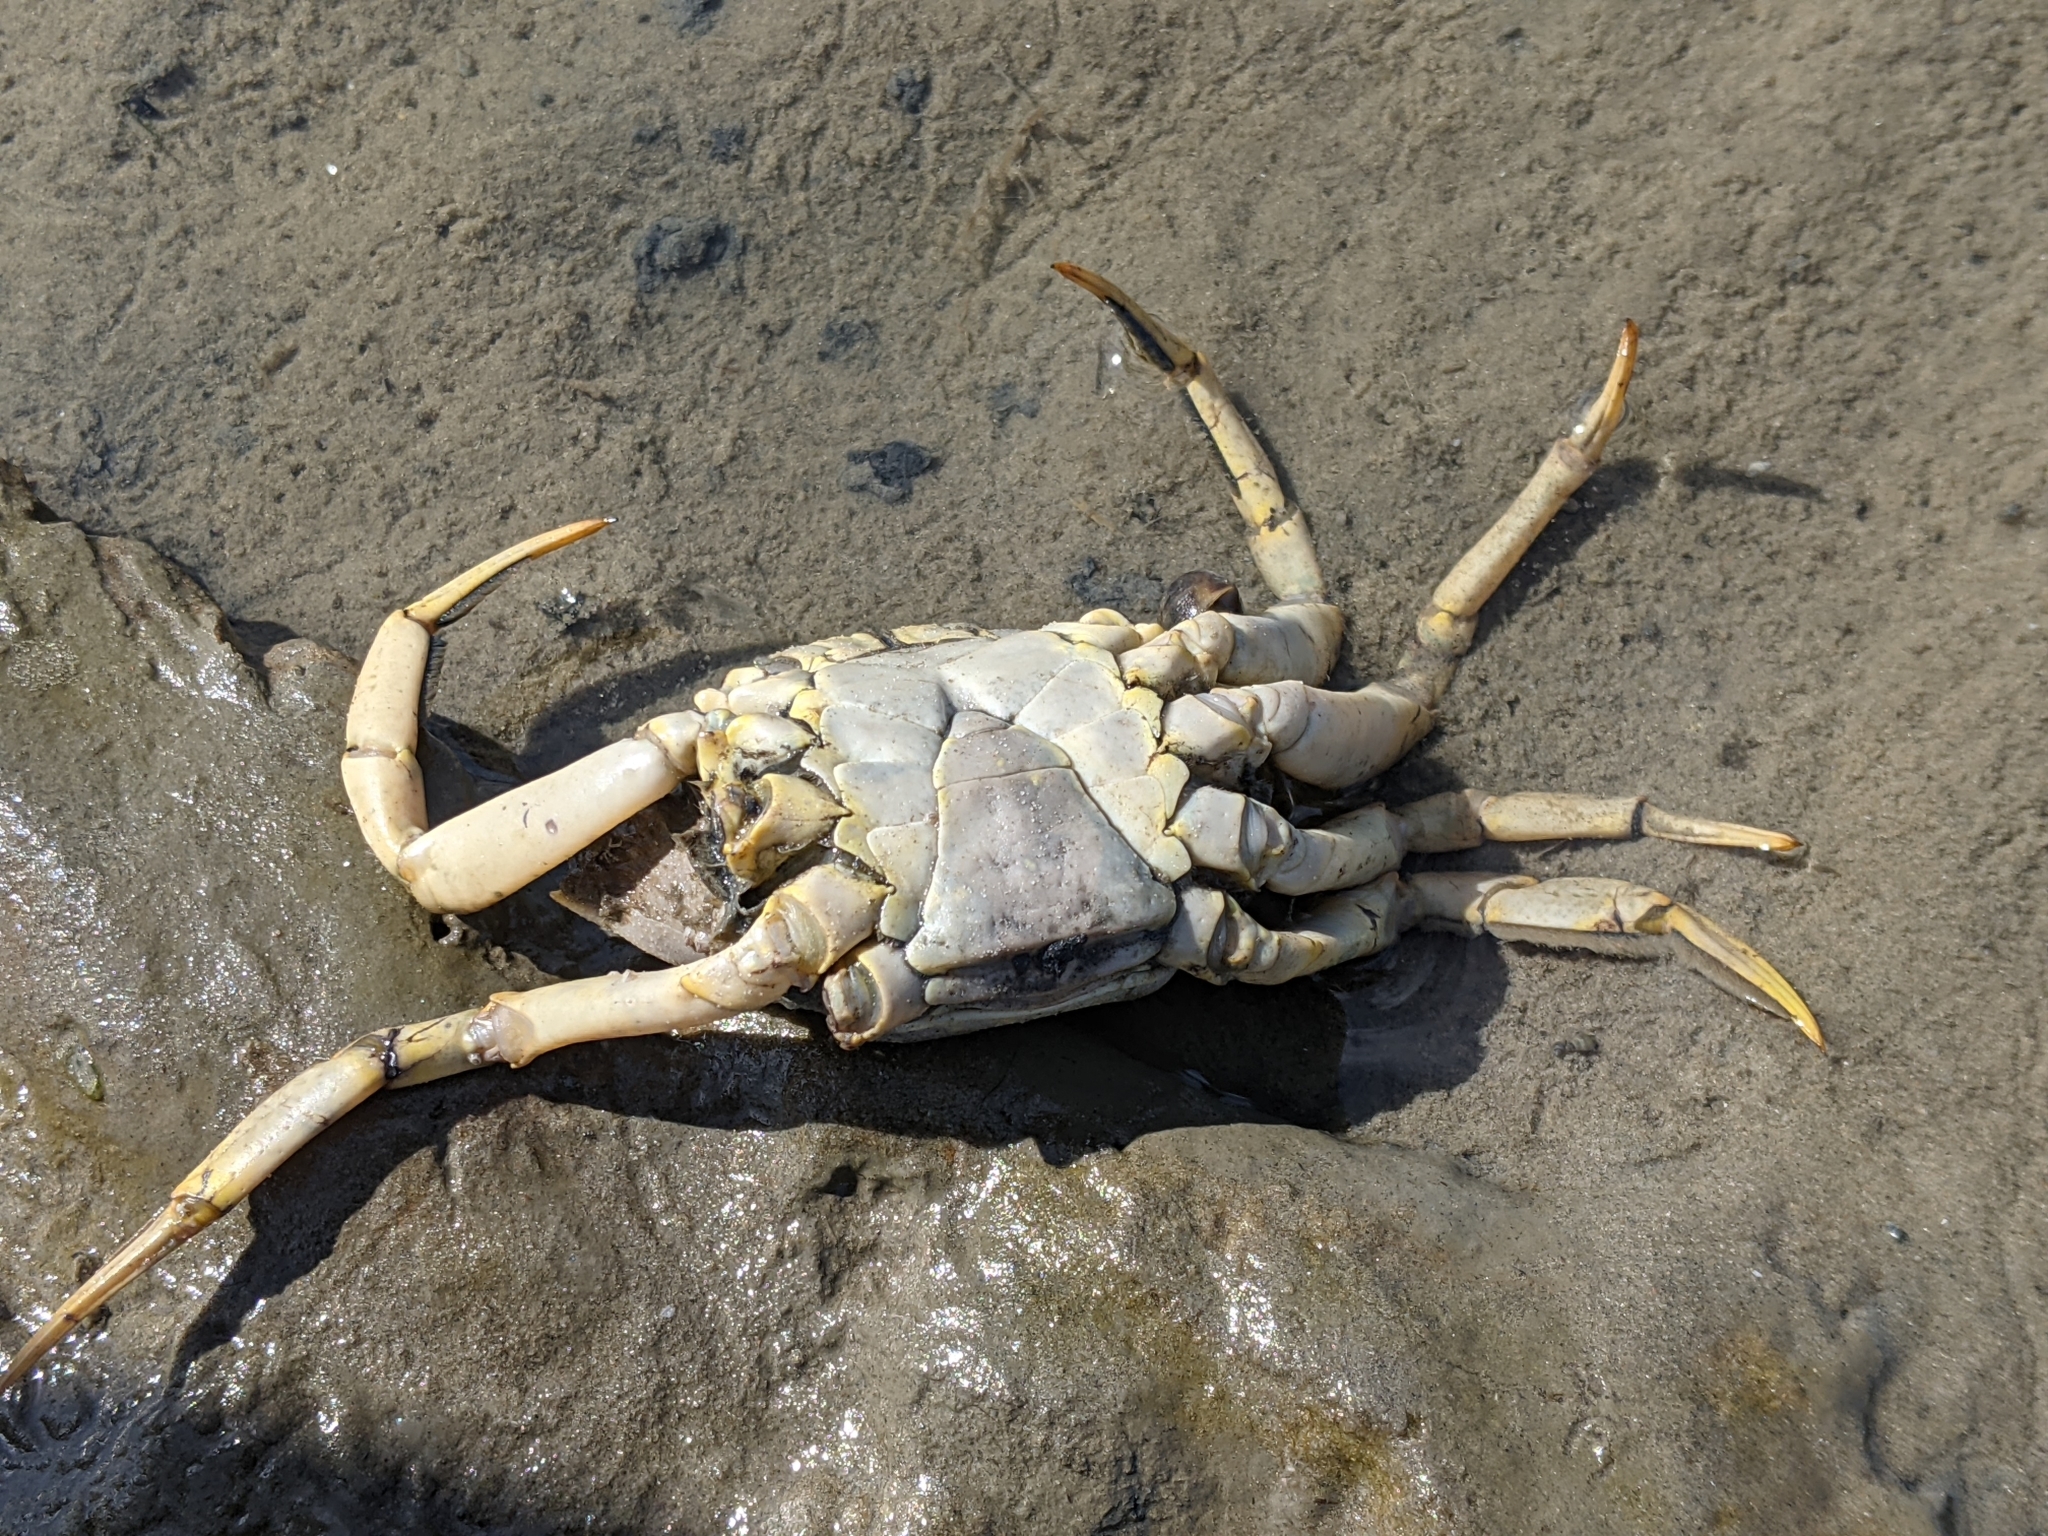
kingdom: Animalia
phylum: Arthropoda
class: Malacostraca
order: Decapoda
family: Carcinidae
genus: Carcinus
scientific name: Carcinus maenas
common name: European green crab
